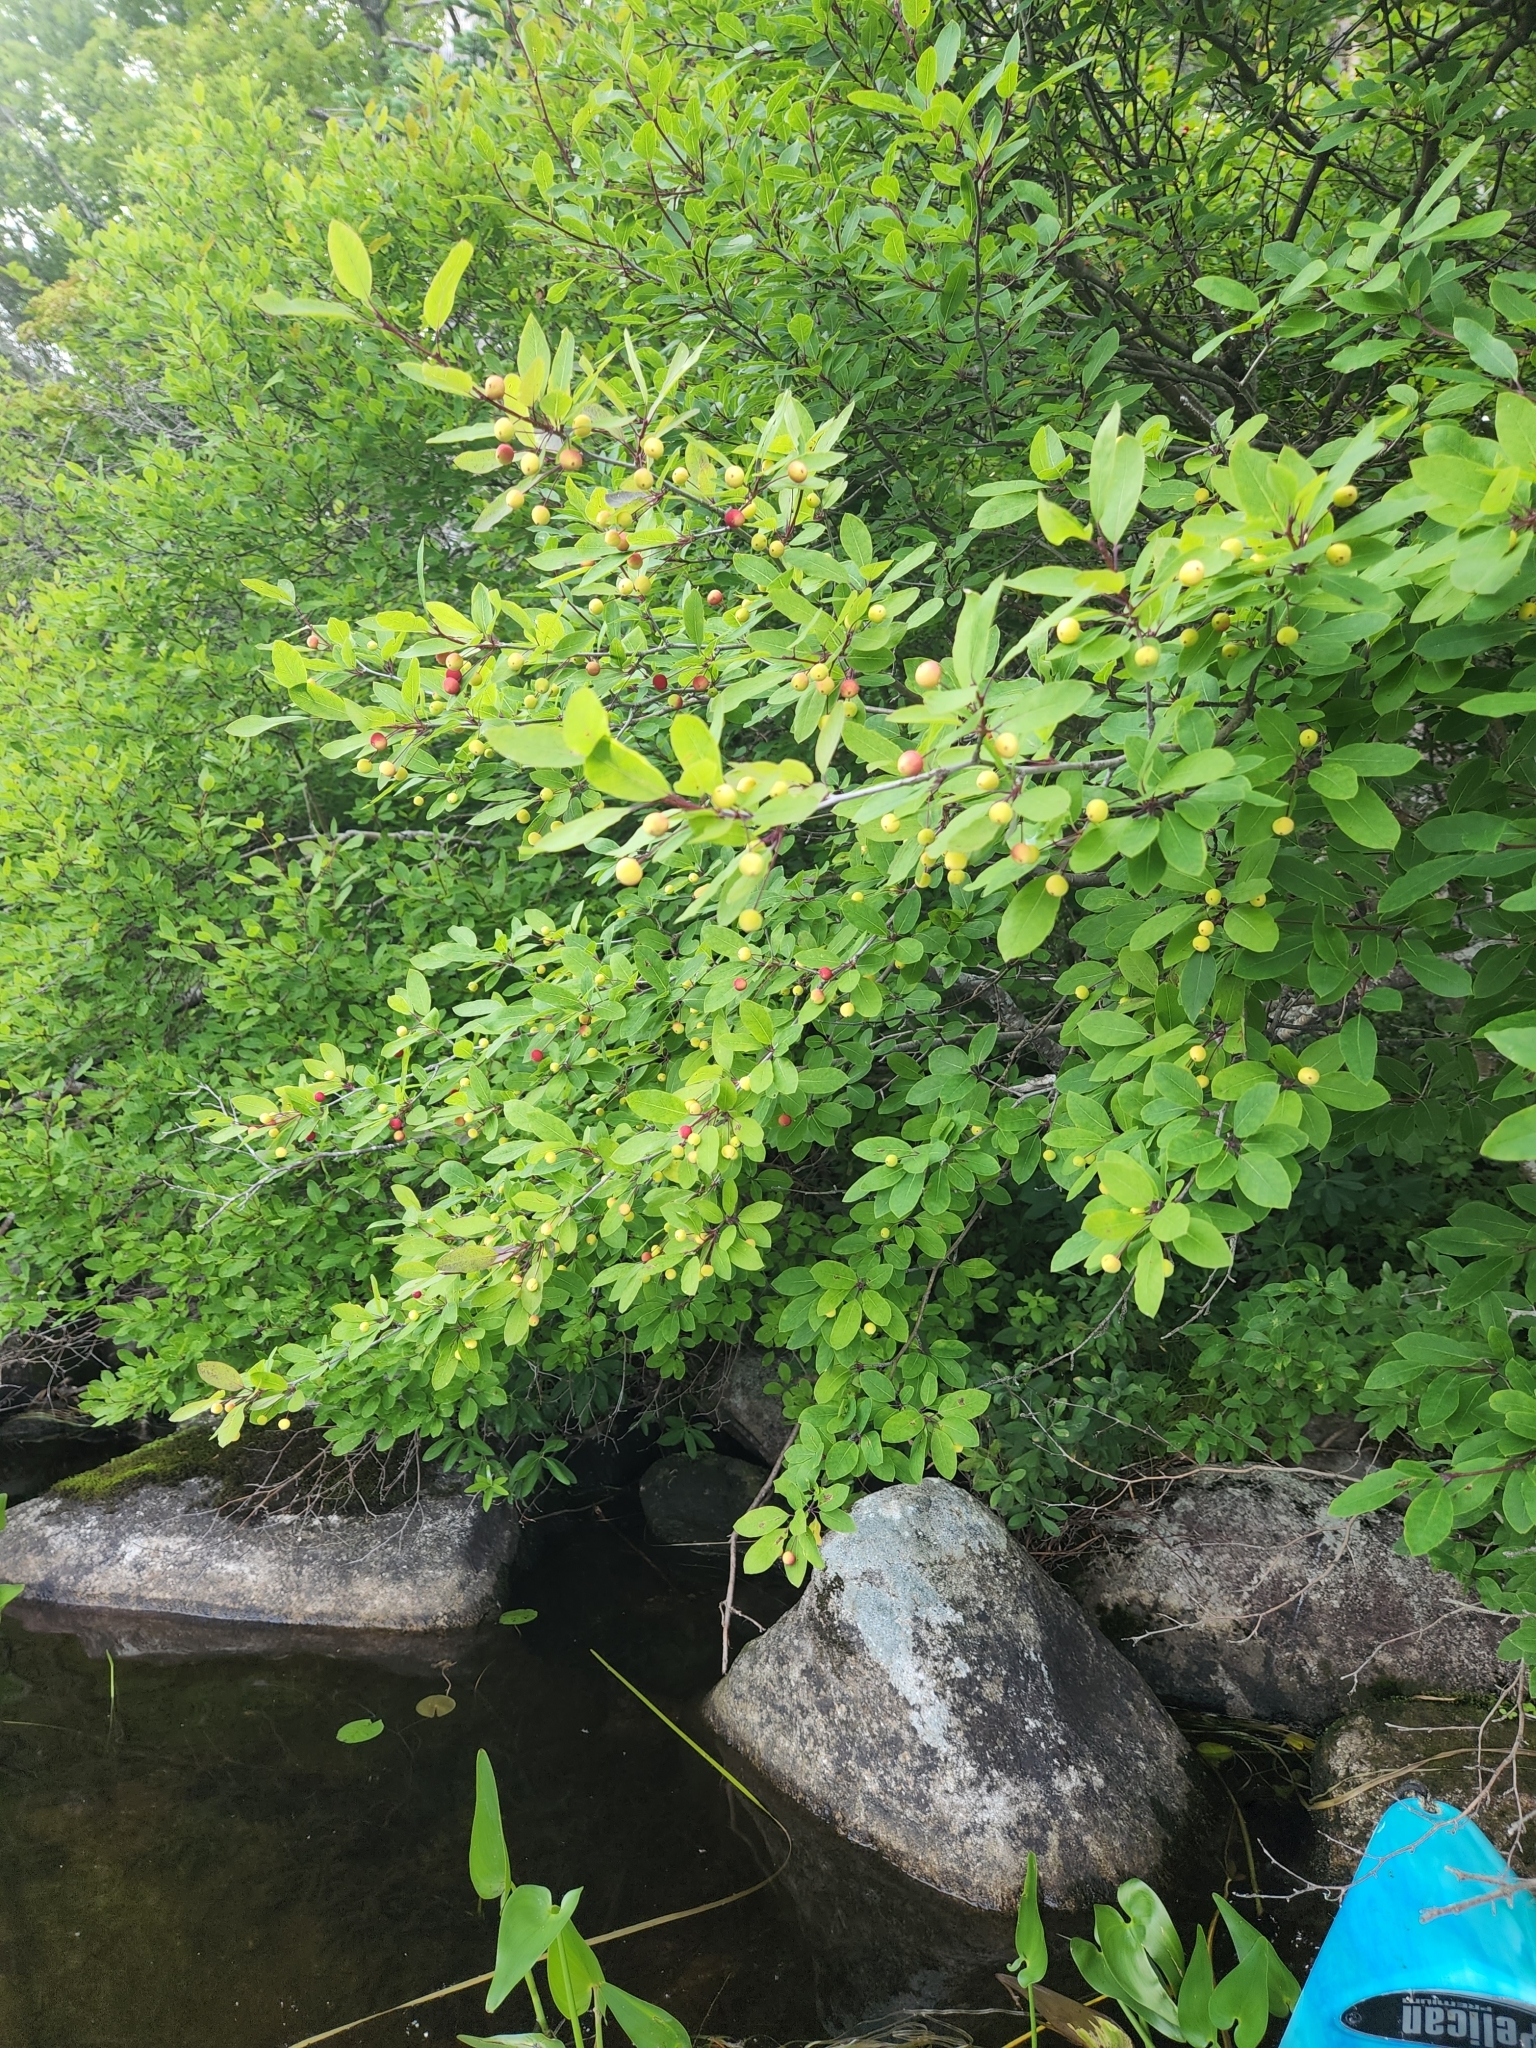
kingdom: Plantae
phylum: Tracheophyta
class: Magnoliopsida
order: Aquifoliales
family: Aquifoliaceae
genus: Ilex
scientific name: Ilex mucronata
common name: Catberry
